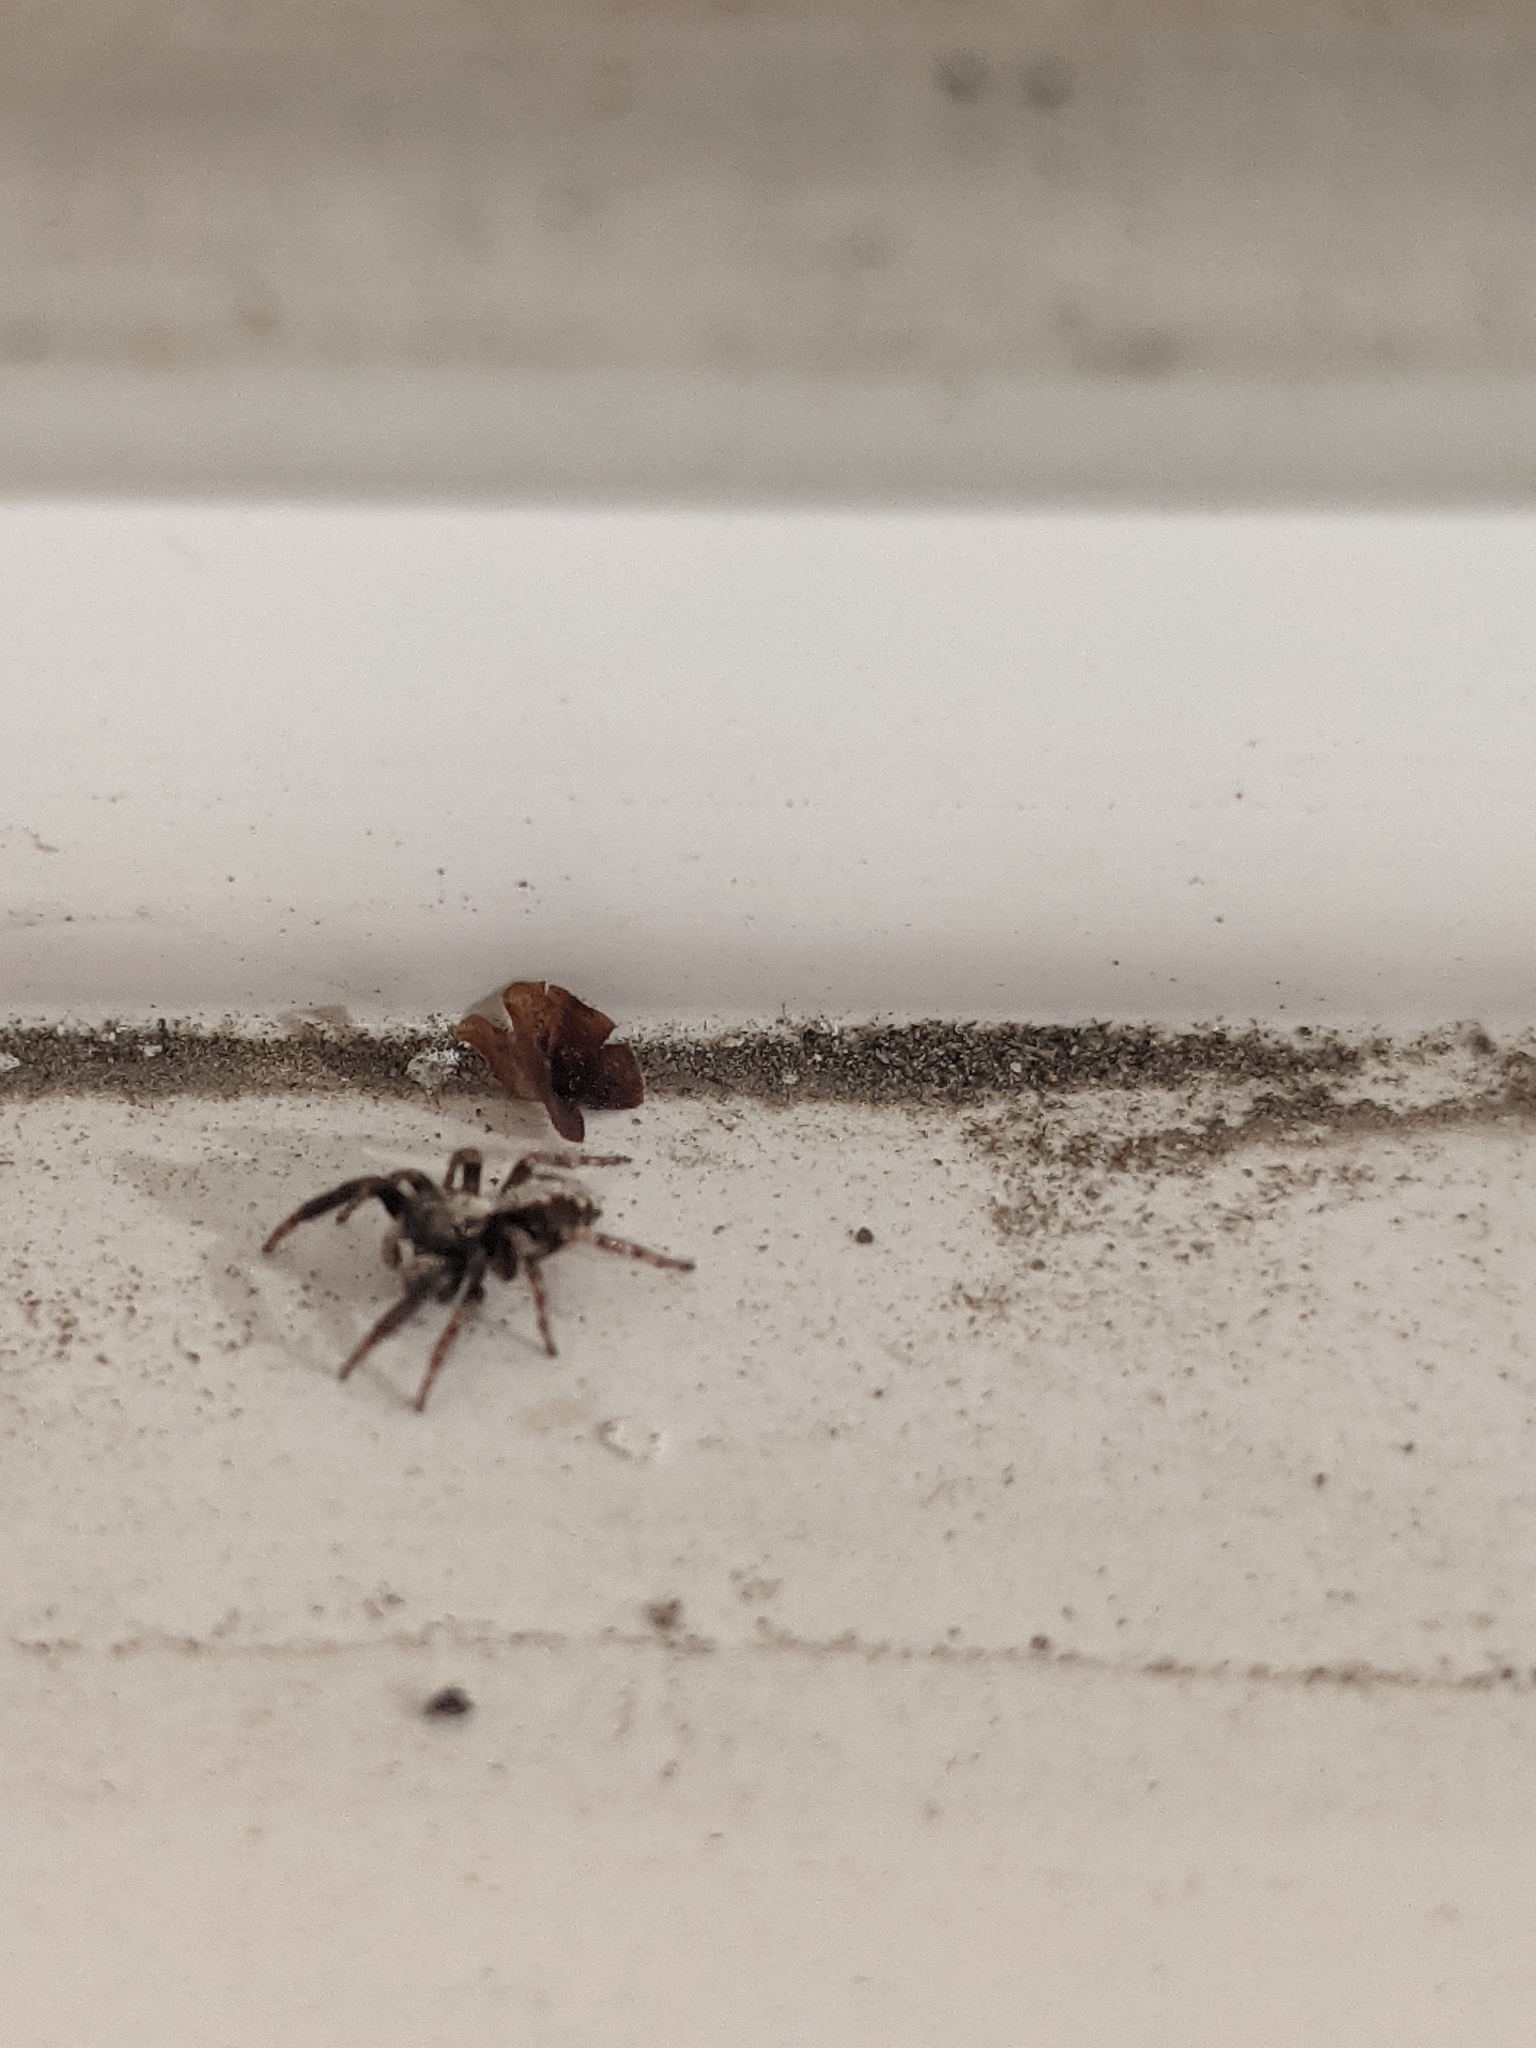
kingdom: Animalia
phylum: Arthropoda
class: Arachnida
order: Araneae
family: Salticidae
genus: Pseudeuophrys
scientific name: Pseudeuophrys lanigera
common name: Jumping spider
